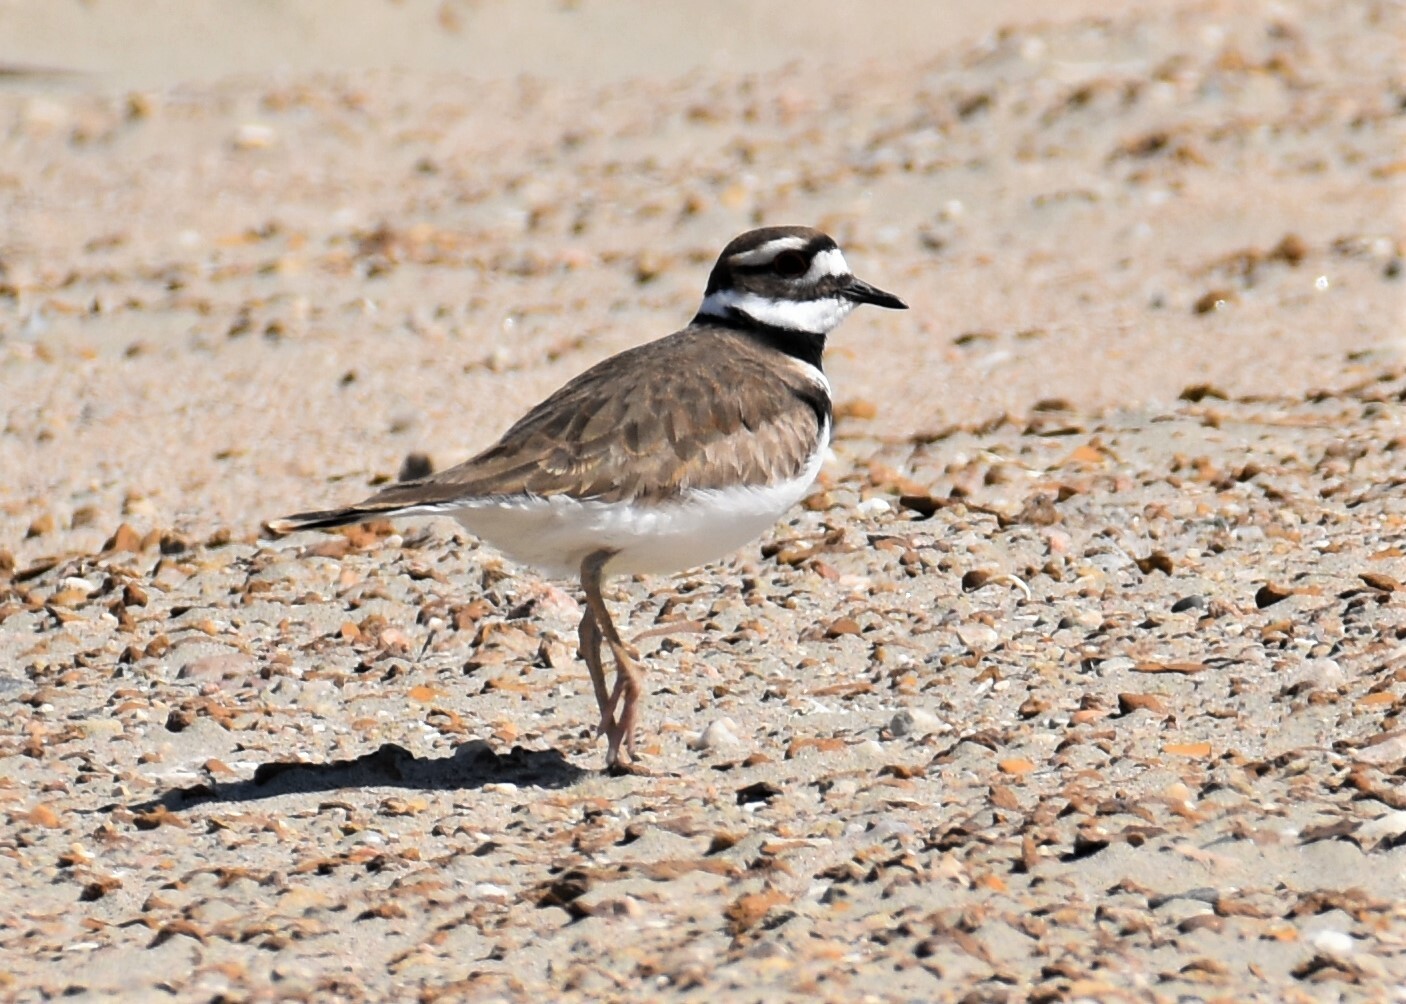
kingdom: Animalia
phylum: Chordata
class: Aves
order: Charadriiformes
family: Charadriidae
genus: Charadrius
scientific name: Charadrius vociferus
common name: Killdeer
